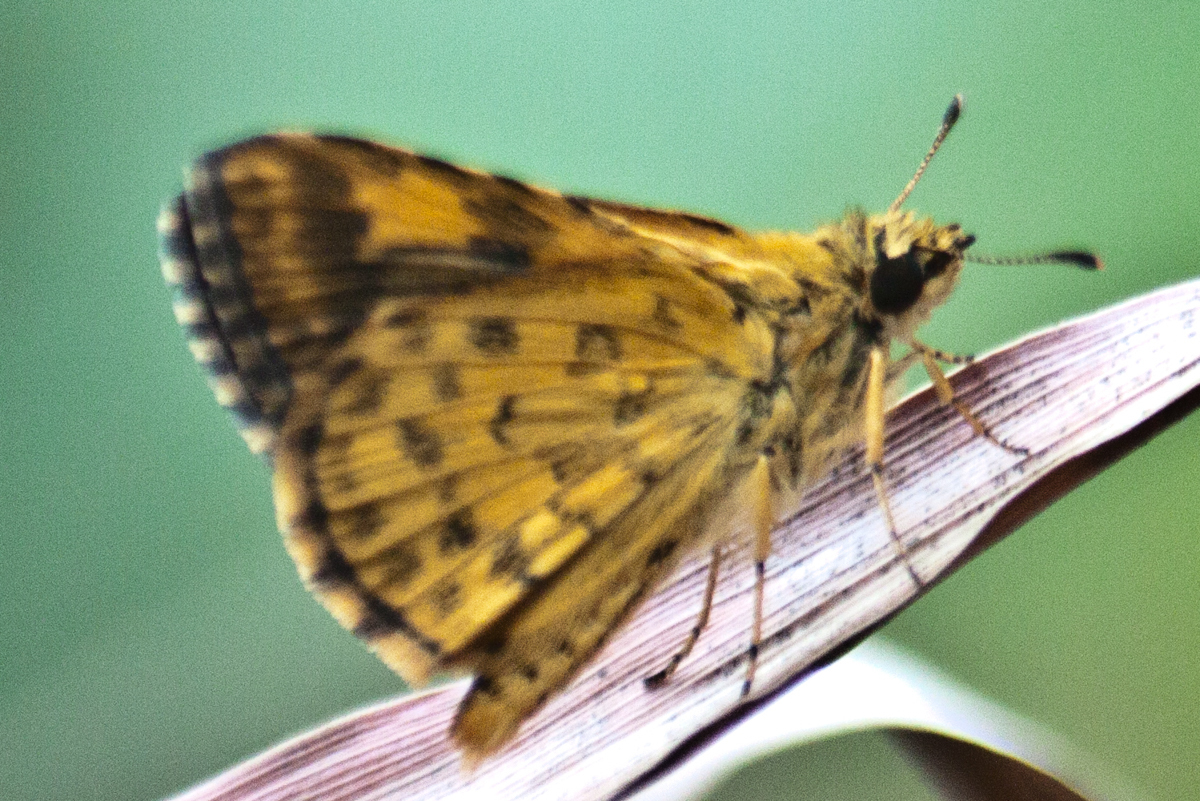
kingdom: Animalia
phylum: Arthropoda
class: Insecta
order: Lepidoptera
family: Hesperiidae
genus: Ampittia
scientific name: Ampittia dioscorides
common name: Common bush hopper
